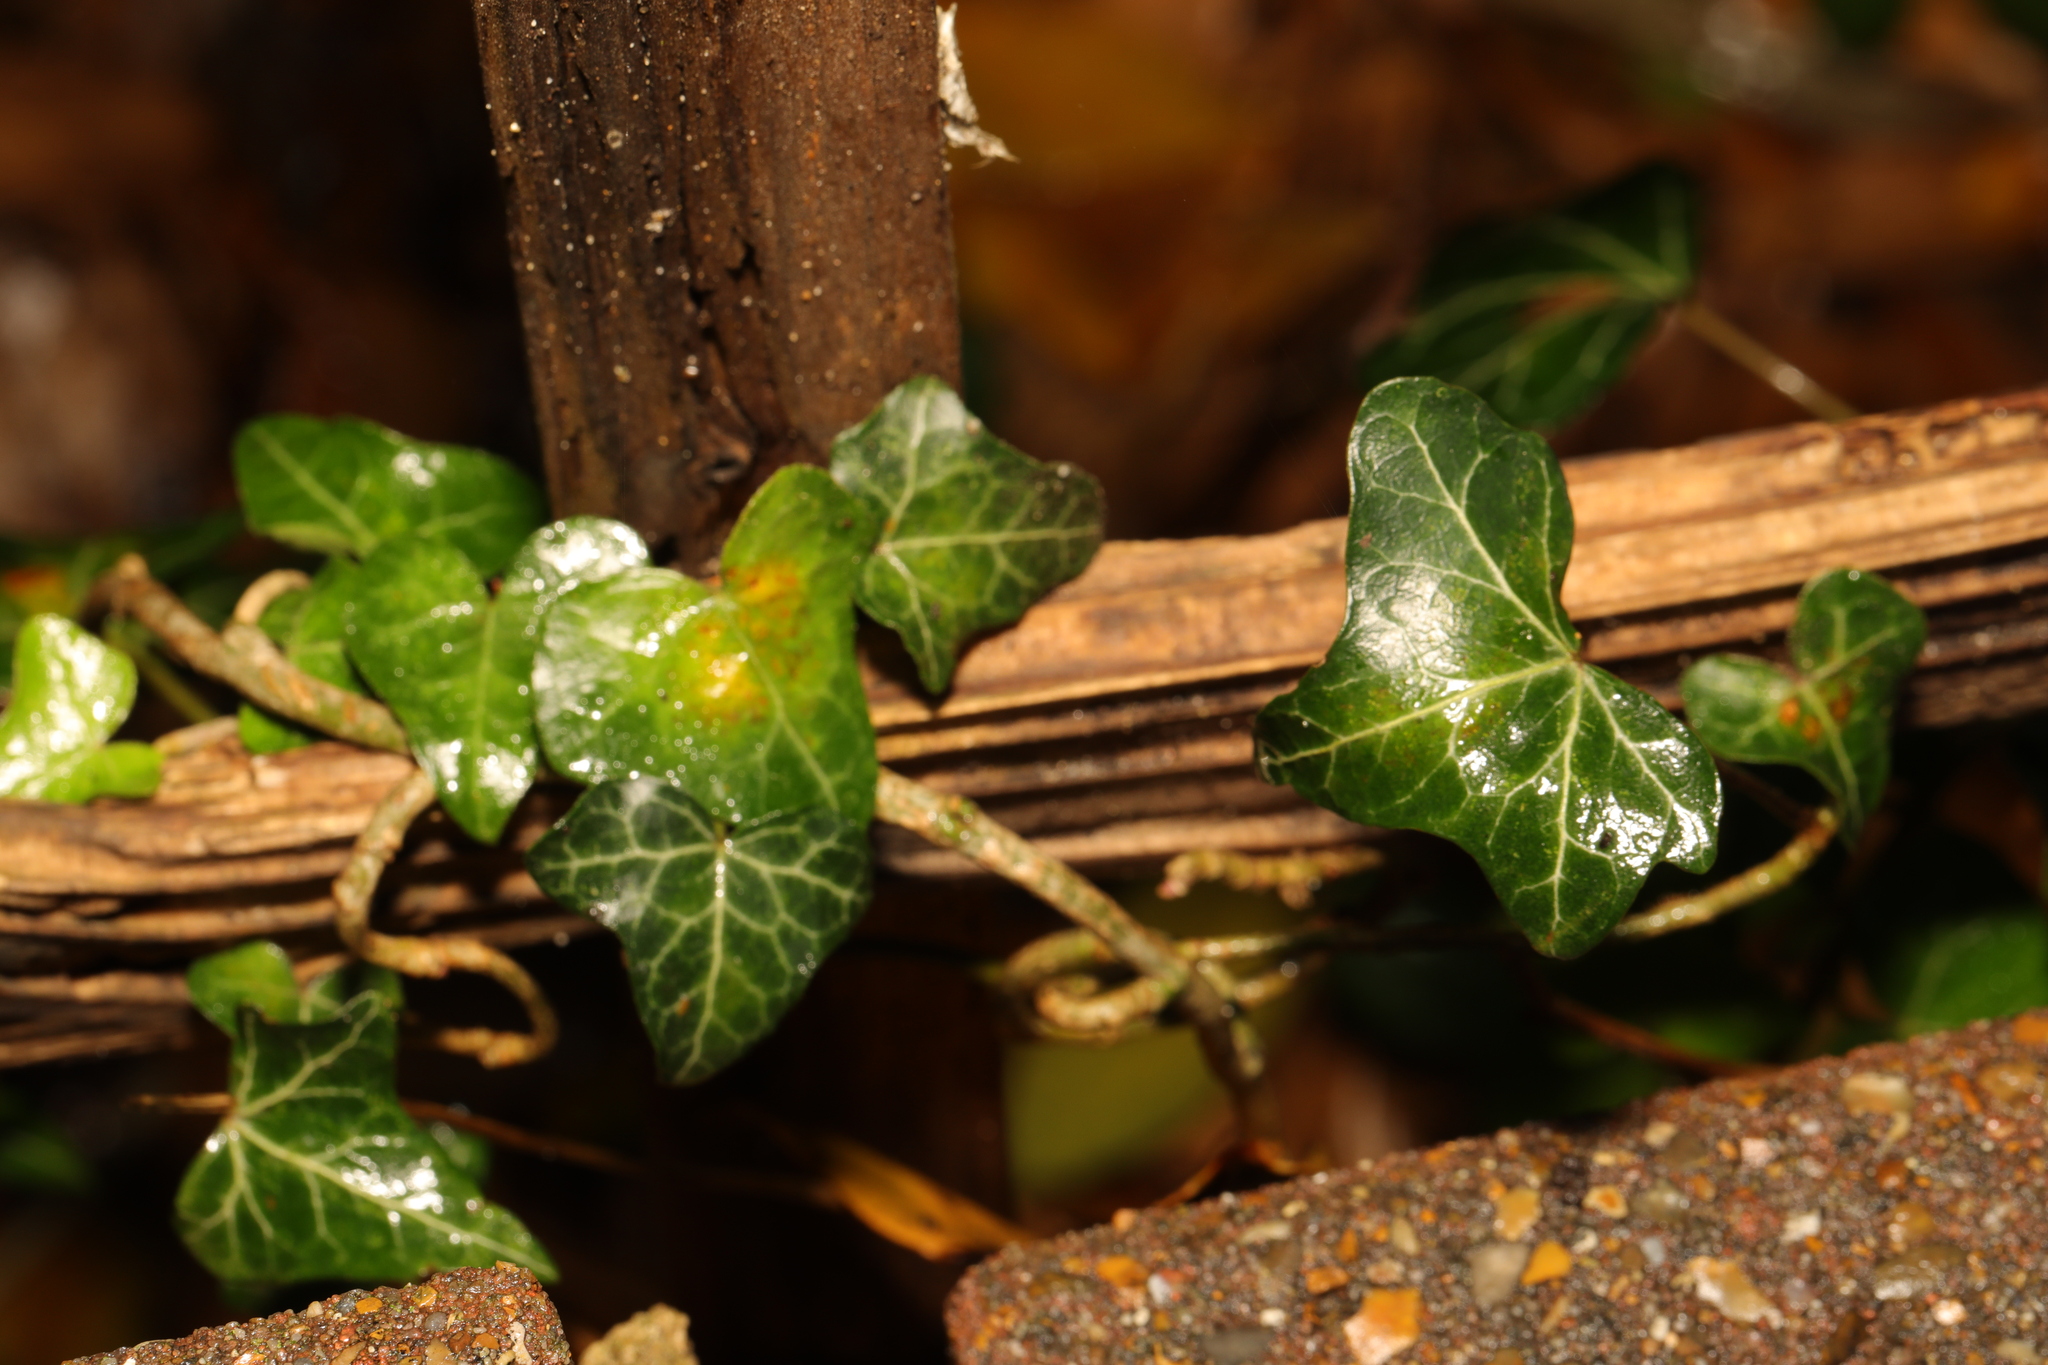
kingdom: Plantae
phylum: Tracheophyta
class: Magnoliopsida
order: Apiales
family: Araliaceae
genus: Hedera
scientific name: Hedera helix
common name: Ivy
